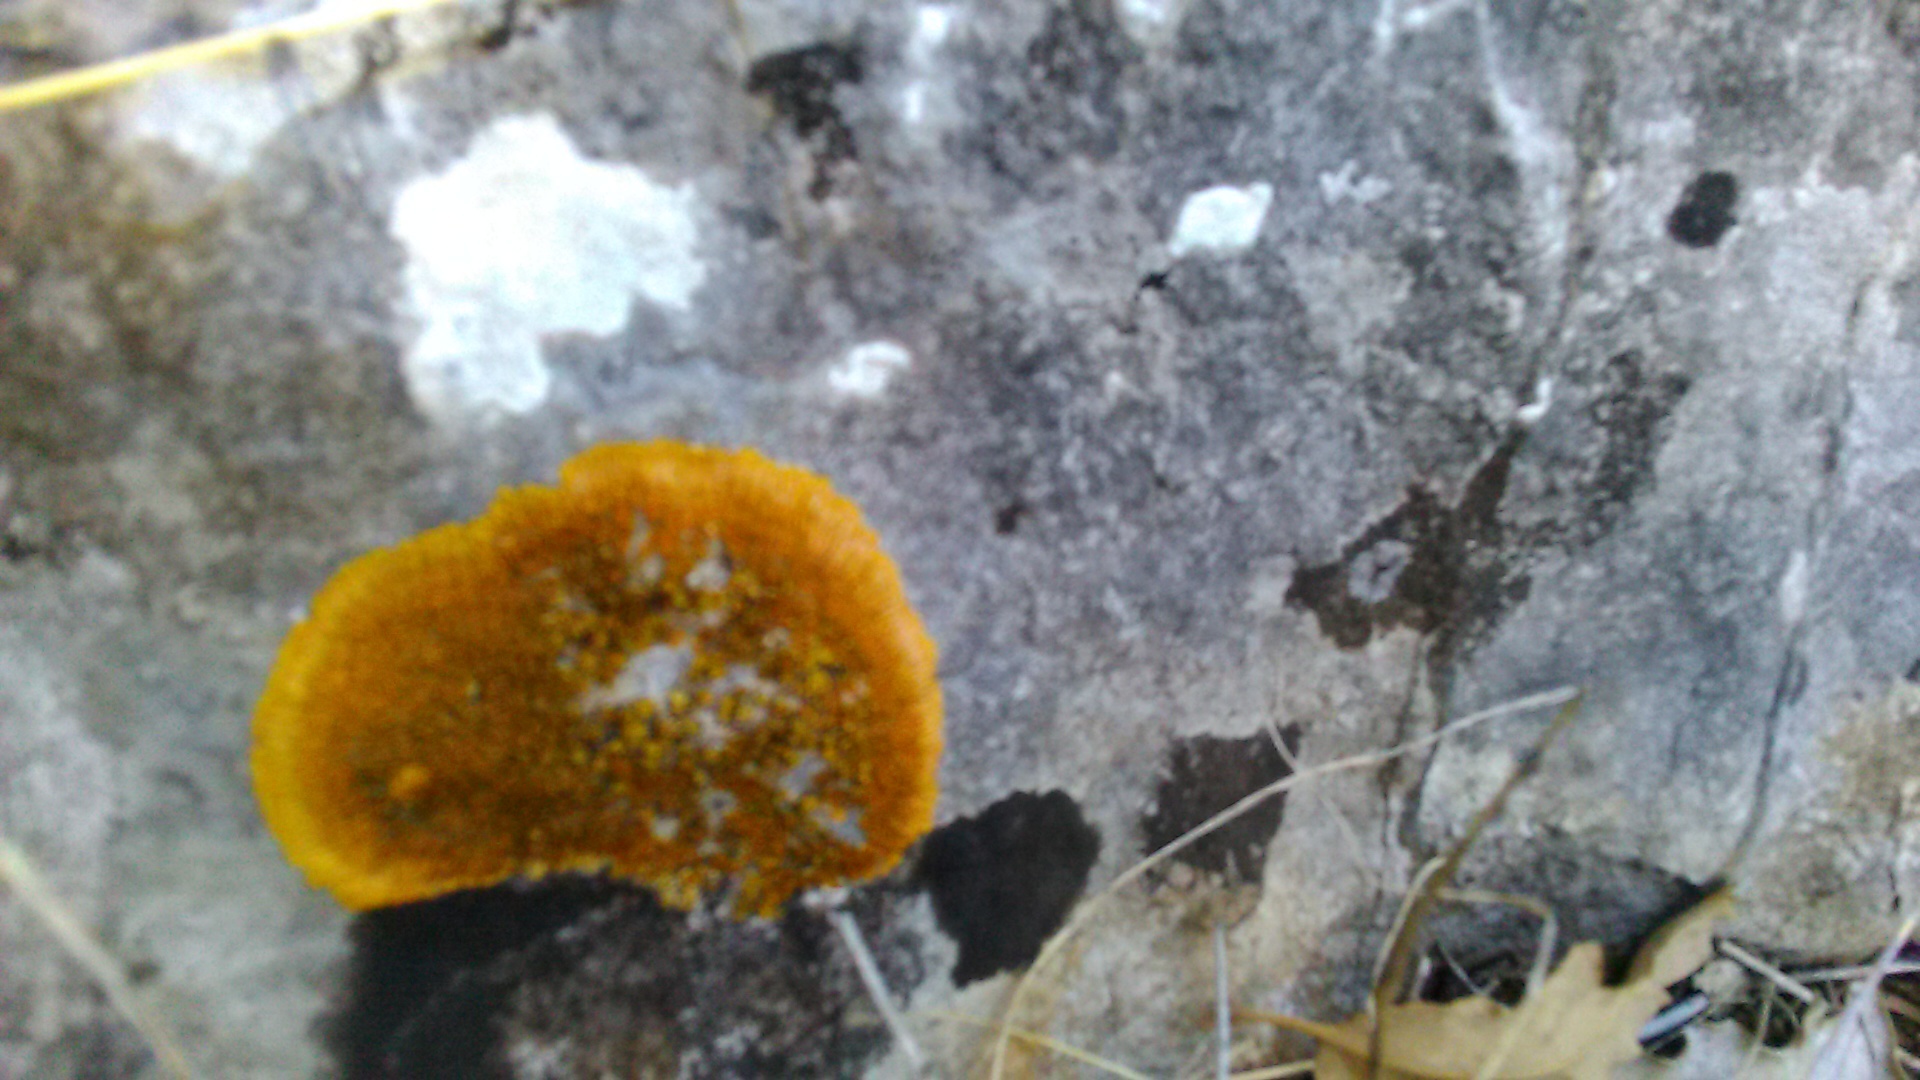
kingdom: Fungi
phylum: Ascomycota
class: Lecanoromycetes
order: Teloschistales
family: Teloschistaceae
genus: Variospora
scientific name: Variospora aurantia
